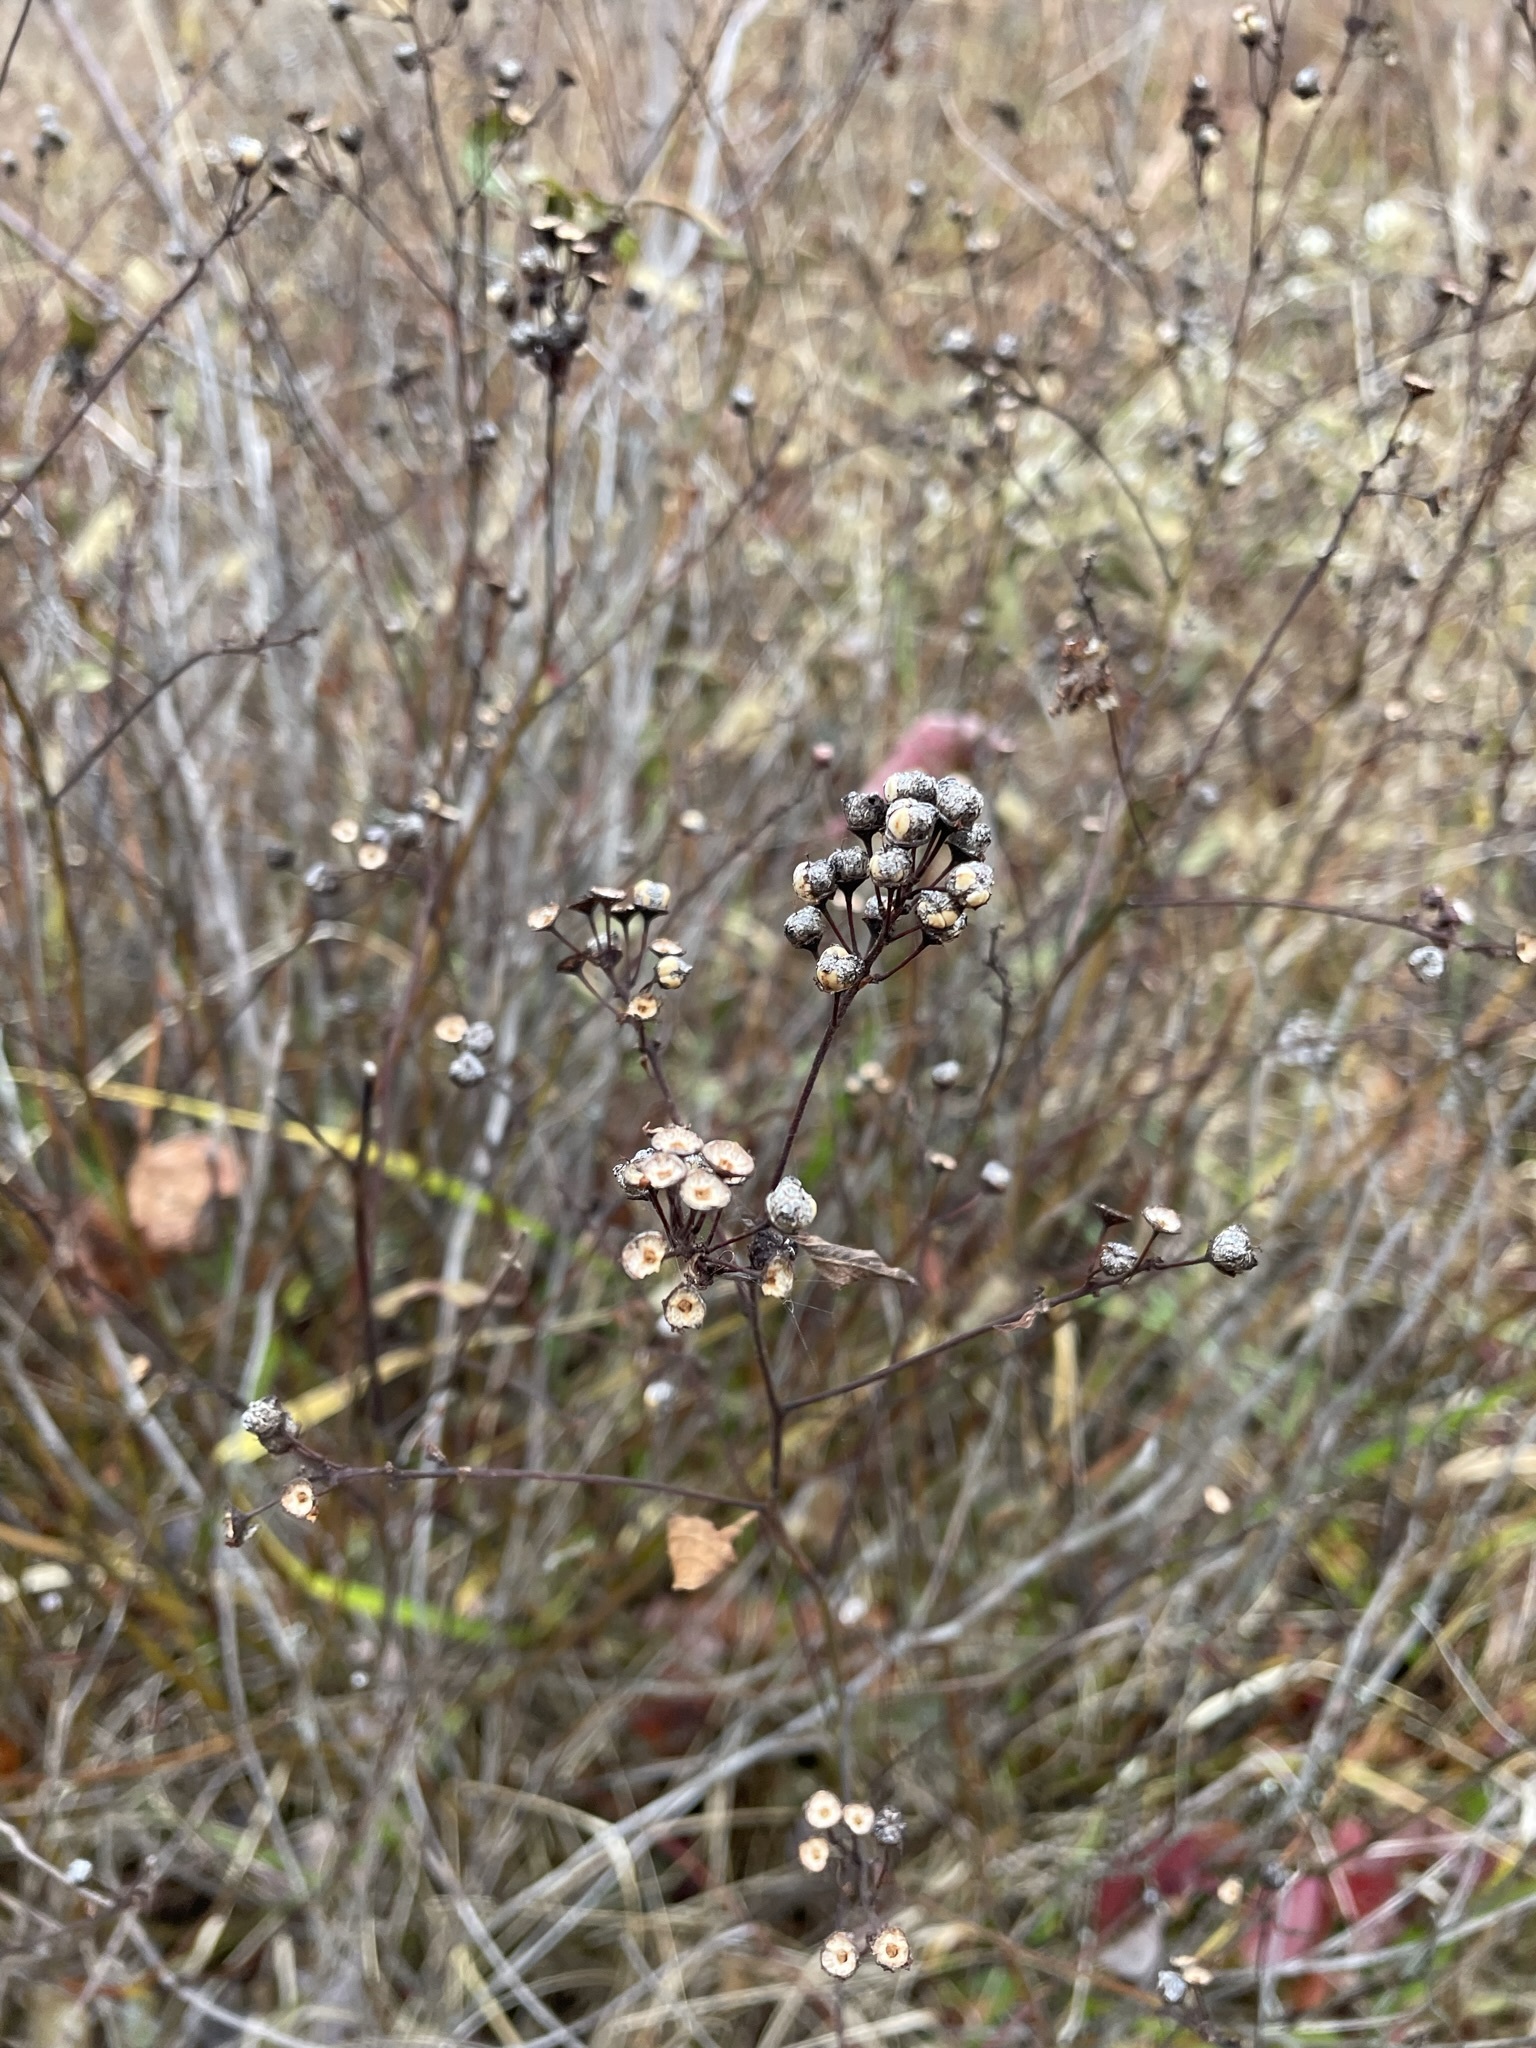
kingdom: Plantae
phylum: Tracheophyta
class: Magnoliopsida
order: Rosales
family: Rhamnaceae
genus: Ceanothus
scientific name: Ceanothus americanus
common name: Redroot
